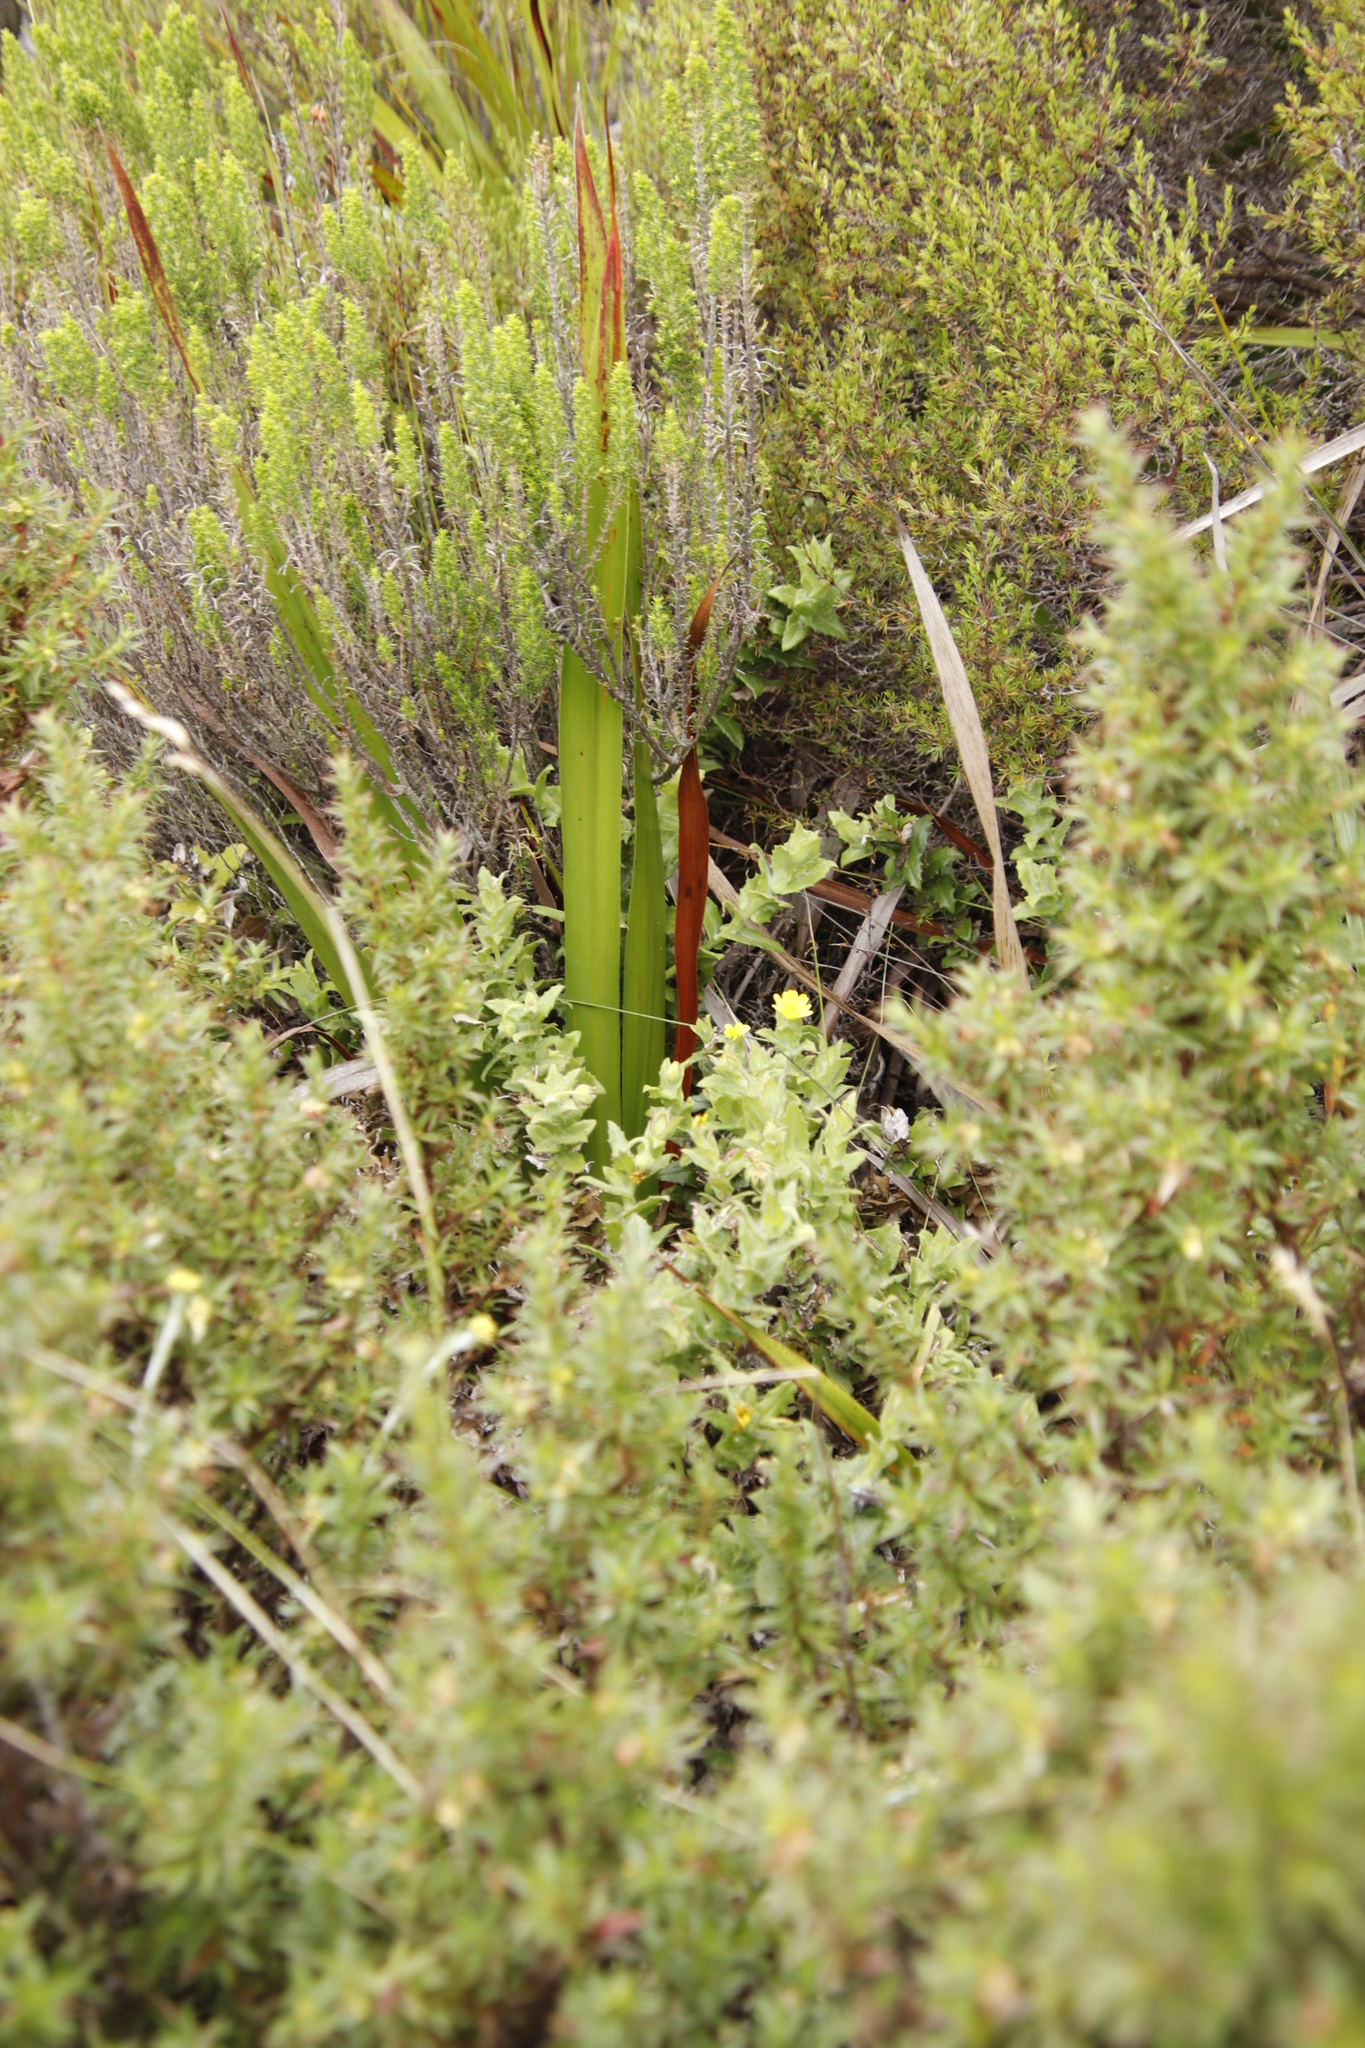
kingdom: Plantae
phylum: Tracheophyta
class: Magnoliopsida
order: Asterales
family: Asteraceae
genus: Osteospermum
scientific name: Osteospermum ilicifolium
